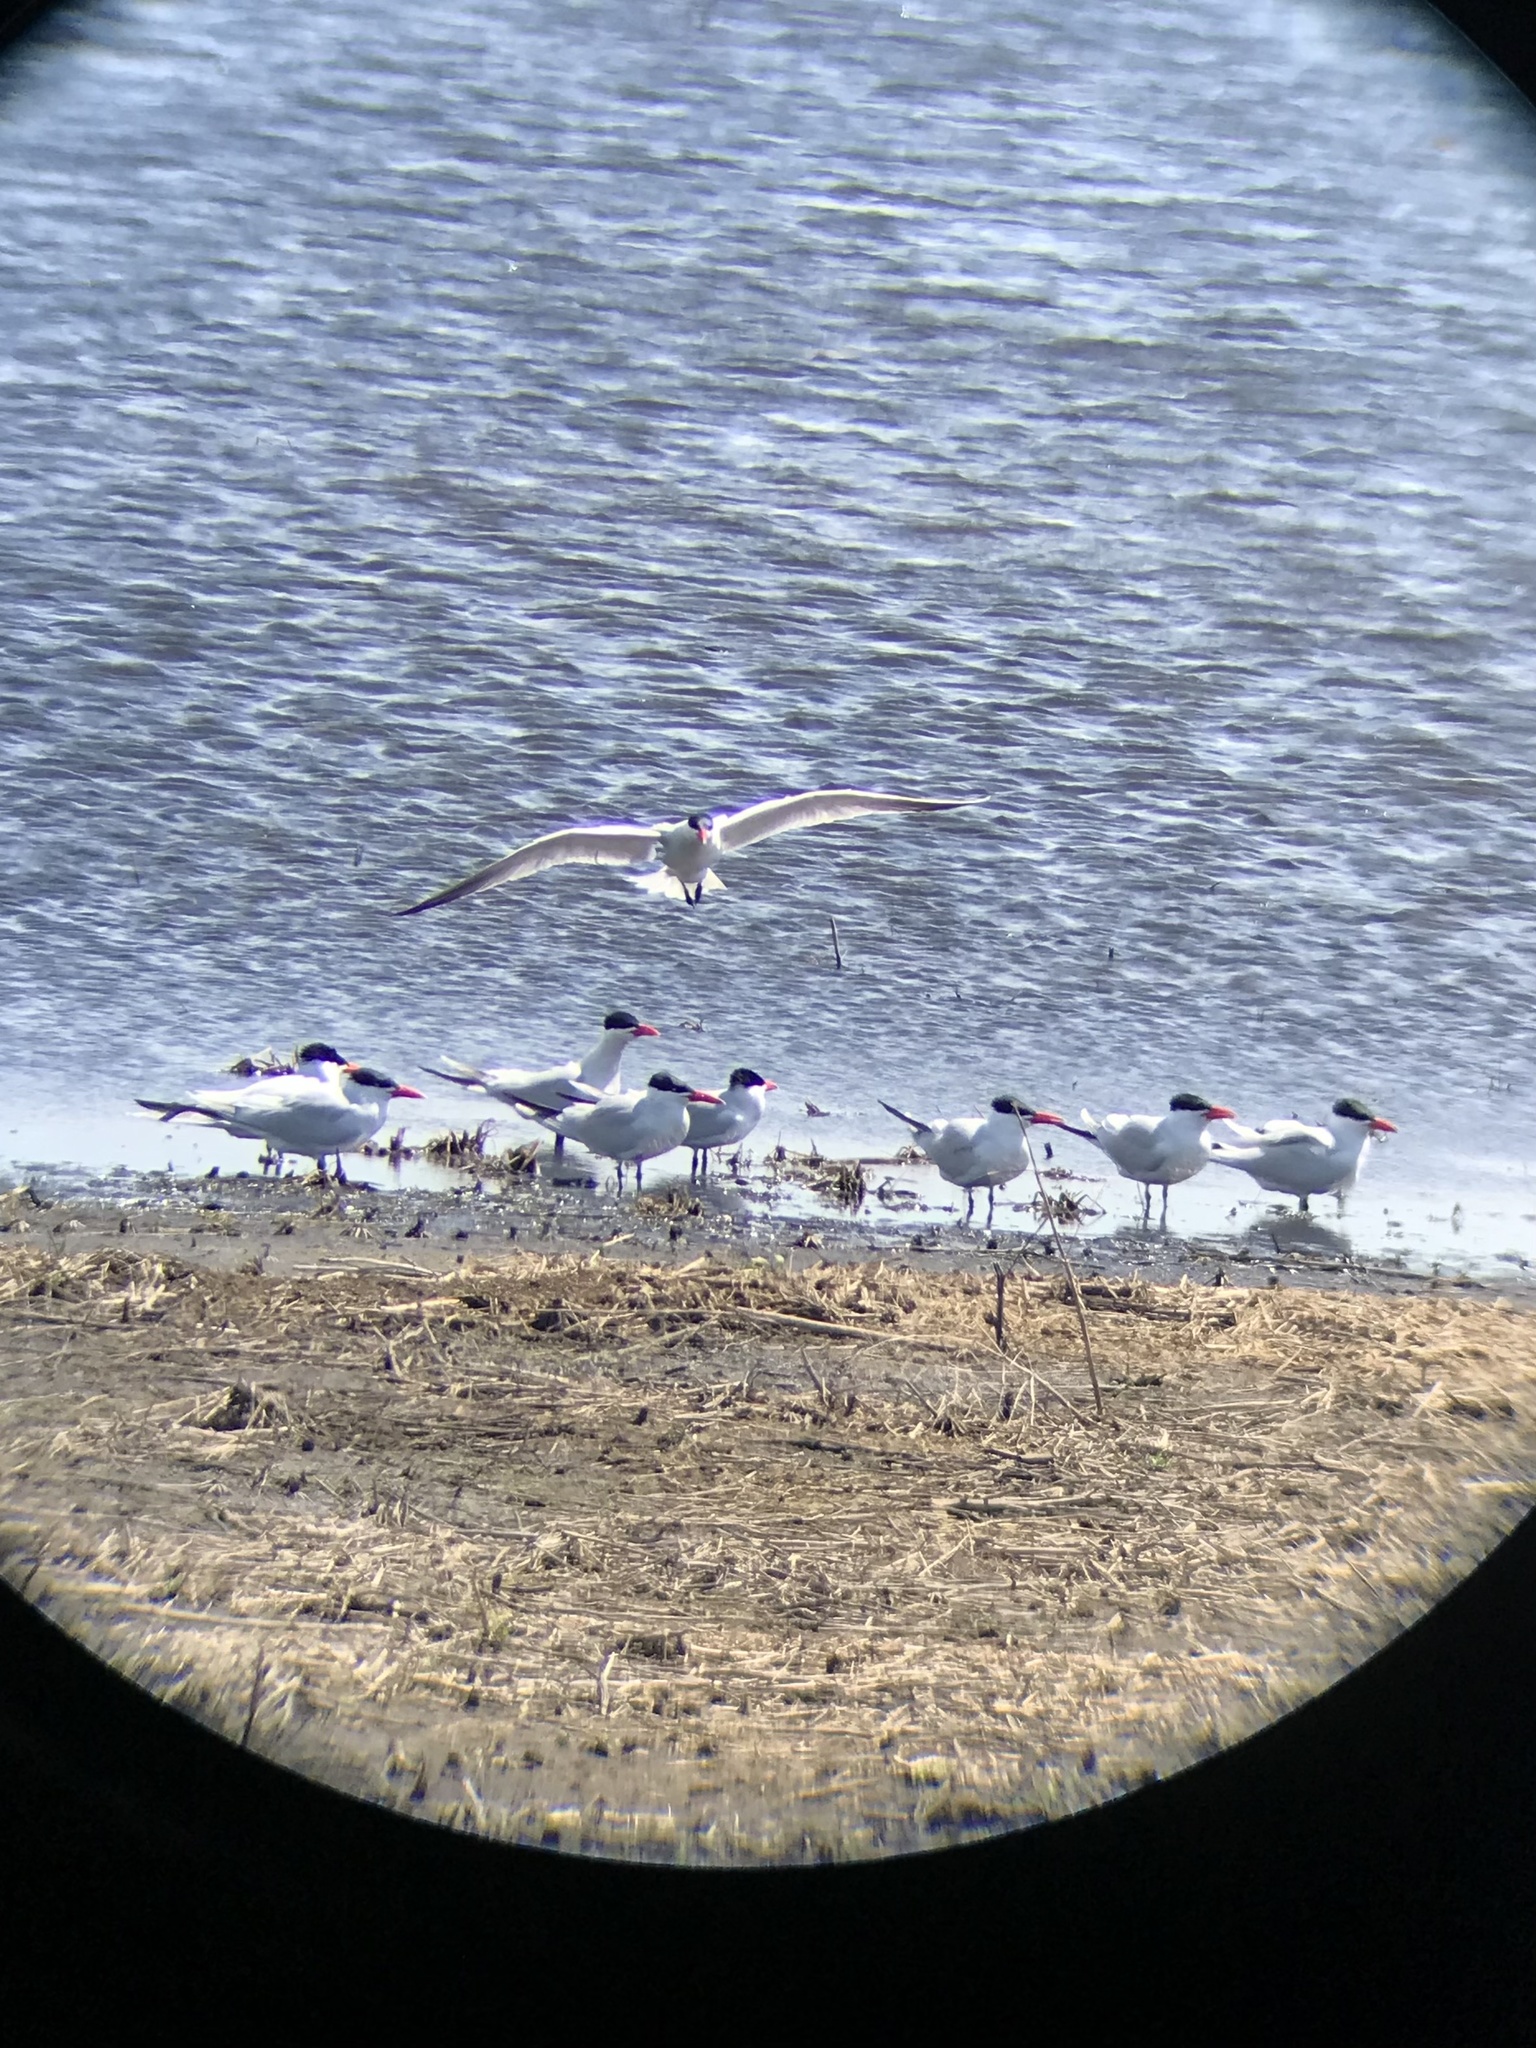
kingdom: Animalia
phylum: Chordata
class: Aves
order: Charadriiformes
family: Laridae
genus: Hydroprogne
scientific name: Hydroprogne caspia
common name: Caspian tern
